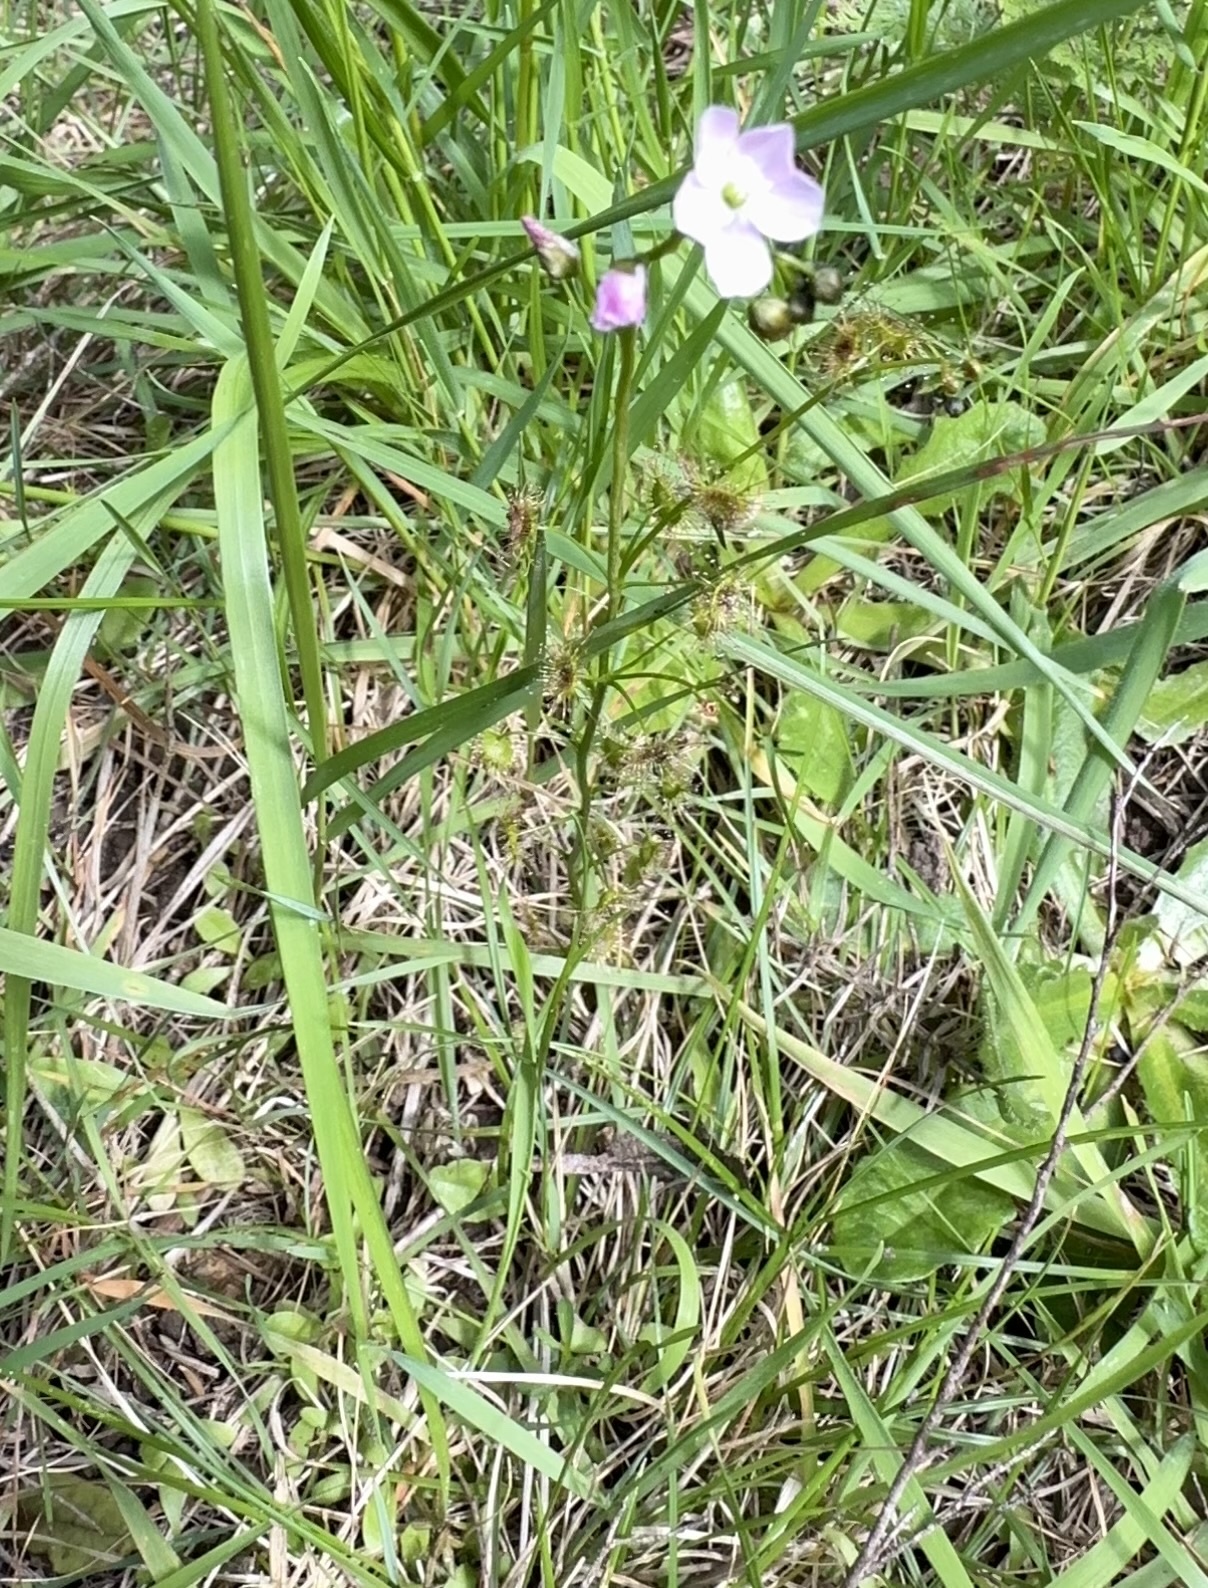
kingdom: Plantae
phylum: Tracheophyta
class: Magnoliopsida
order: Caryophyllales
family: Droseraceae
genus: Drosera
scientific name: Drosera peltata
